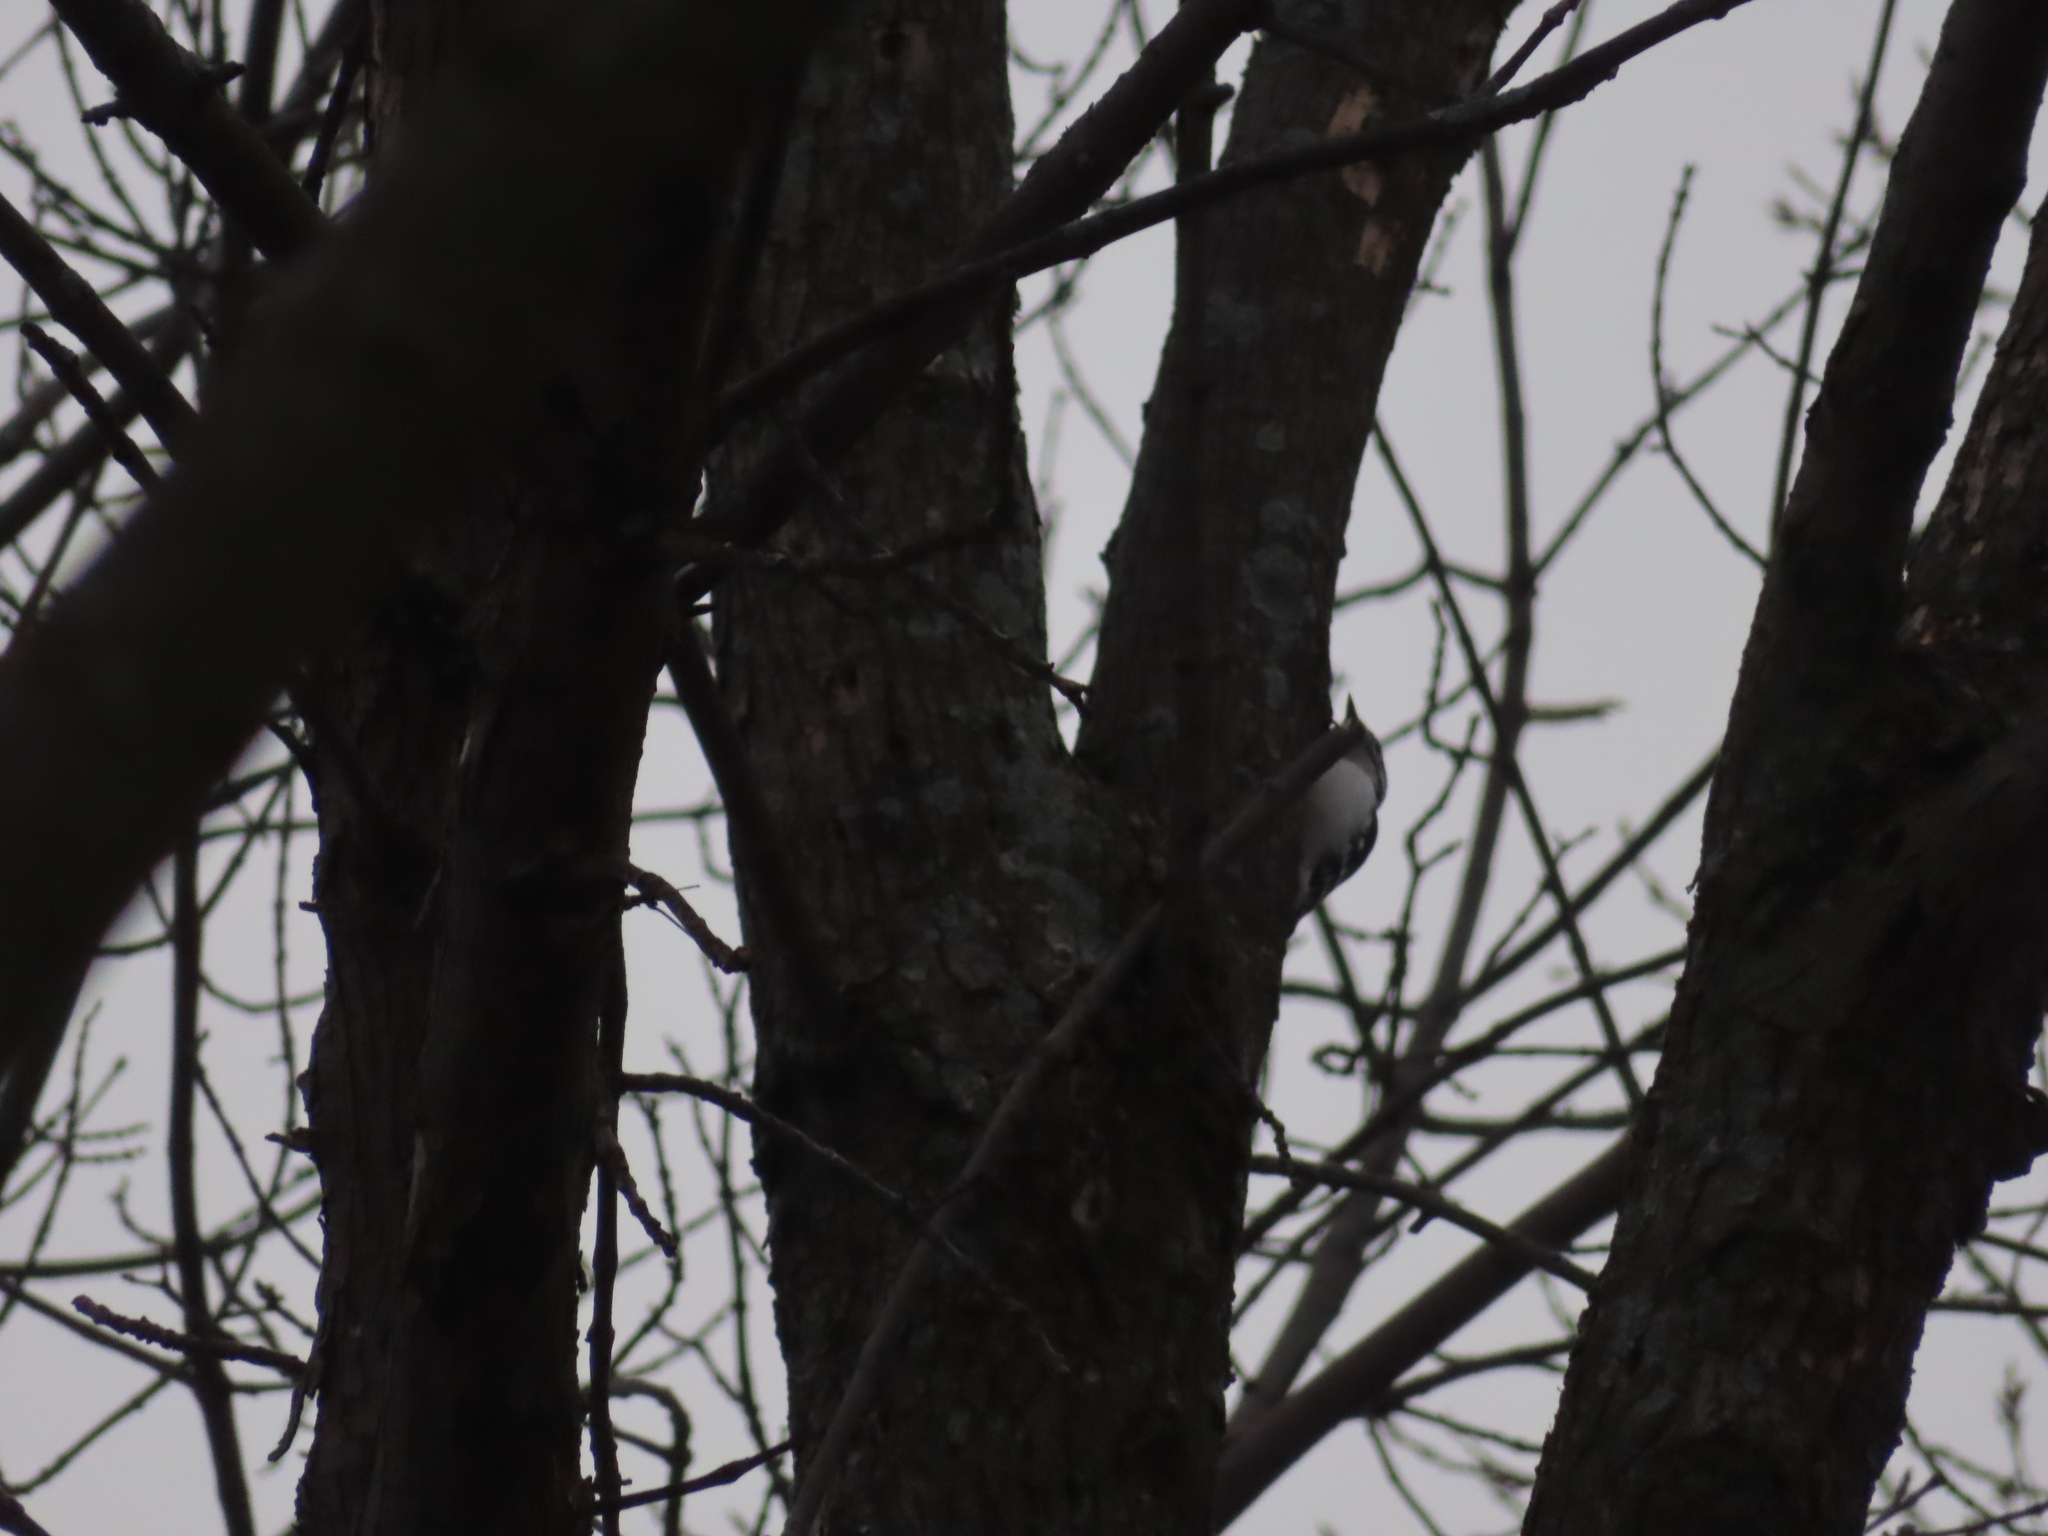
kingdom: Animalia
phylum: Chordata
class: Aves
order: Piciformes
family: Picidae
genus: Leuconotopicus
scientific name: Leuconotopicus villosus
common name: Hairy woodpecker
